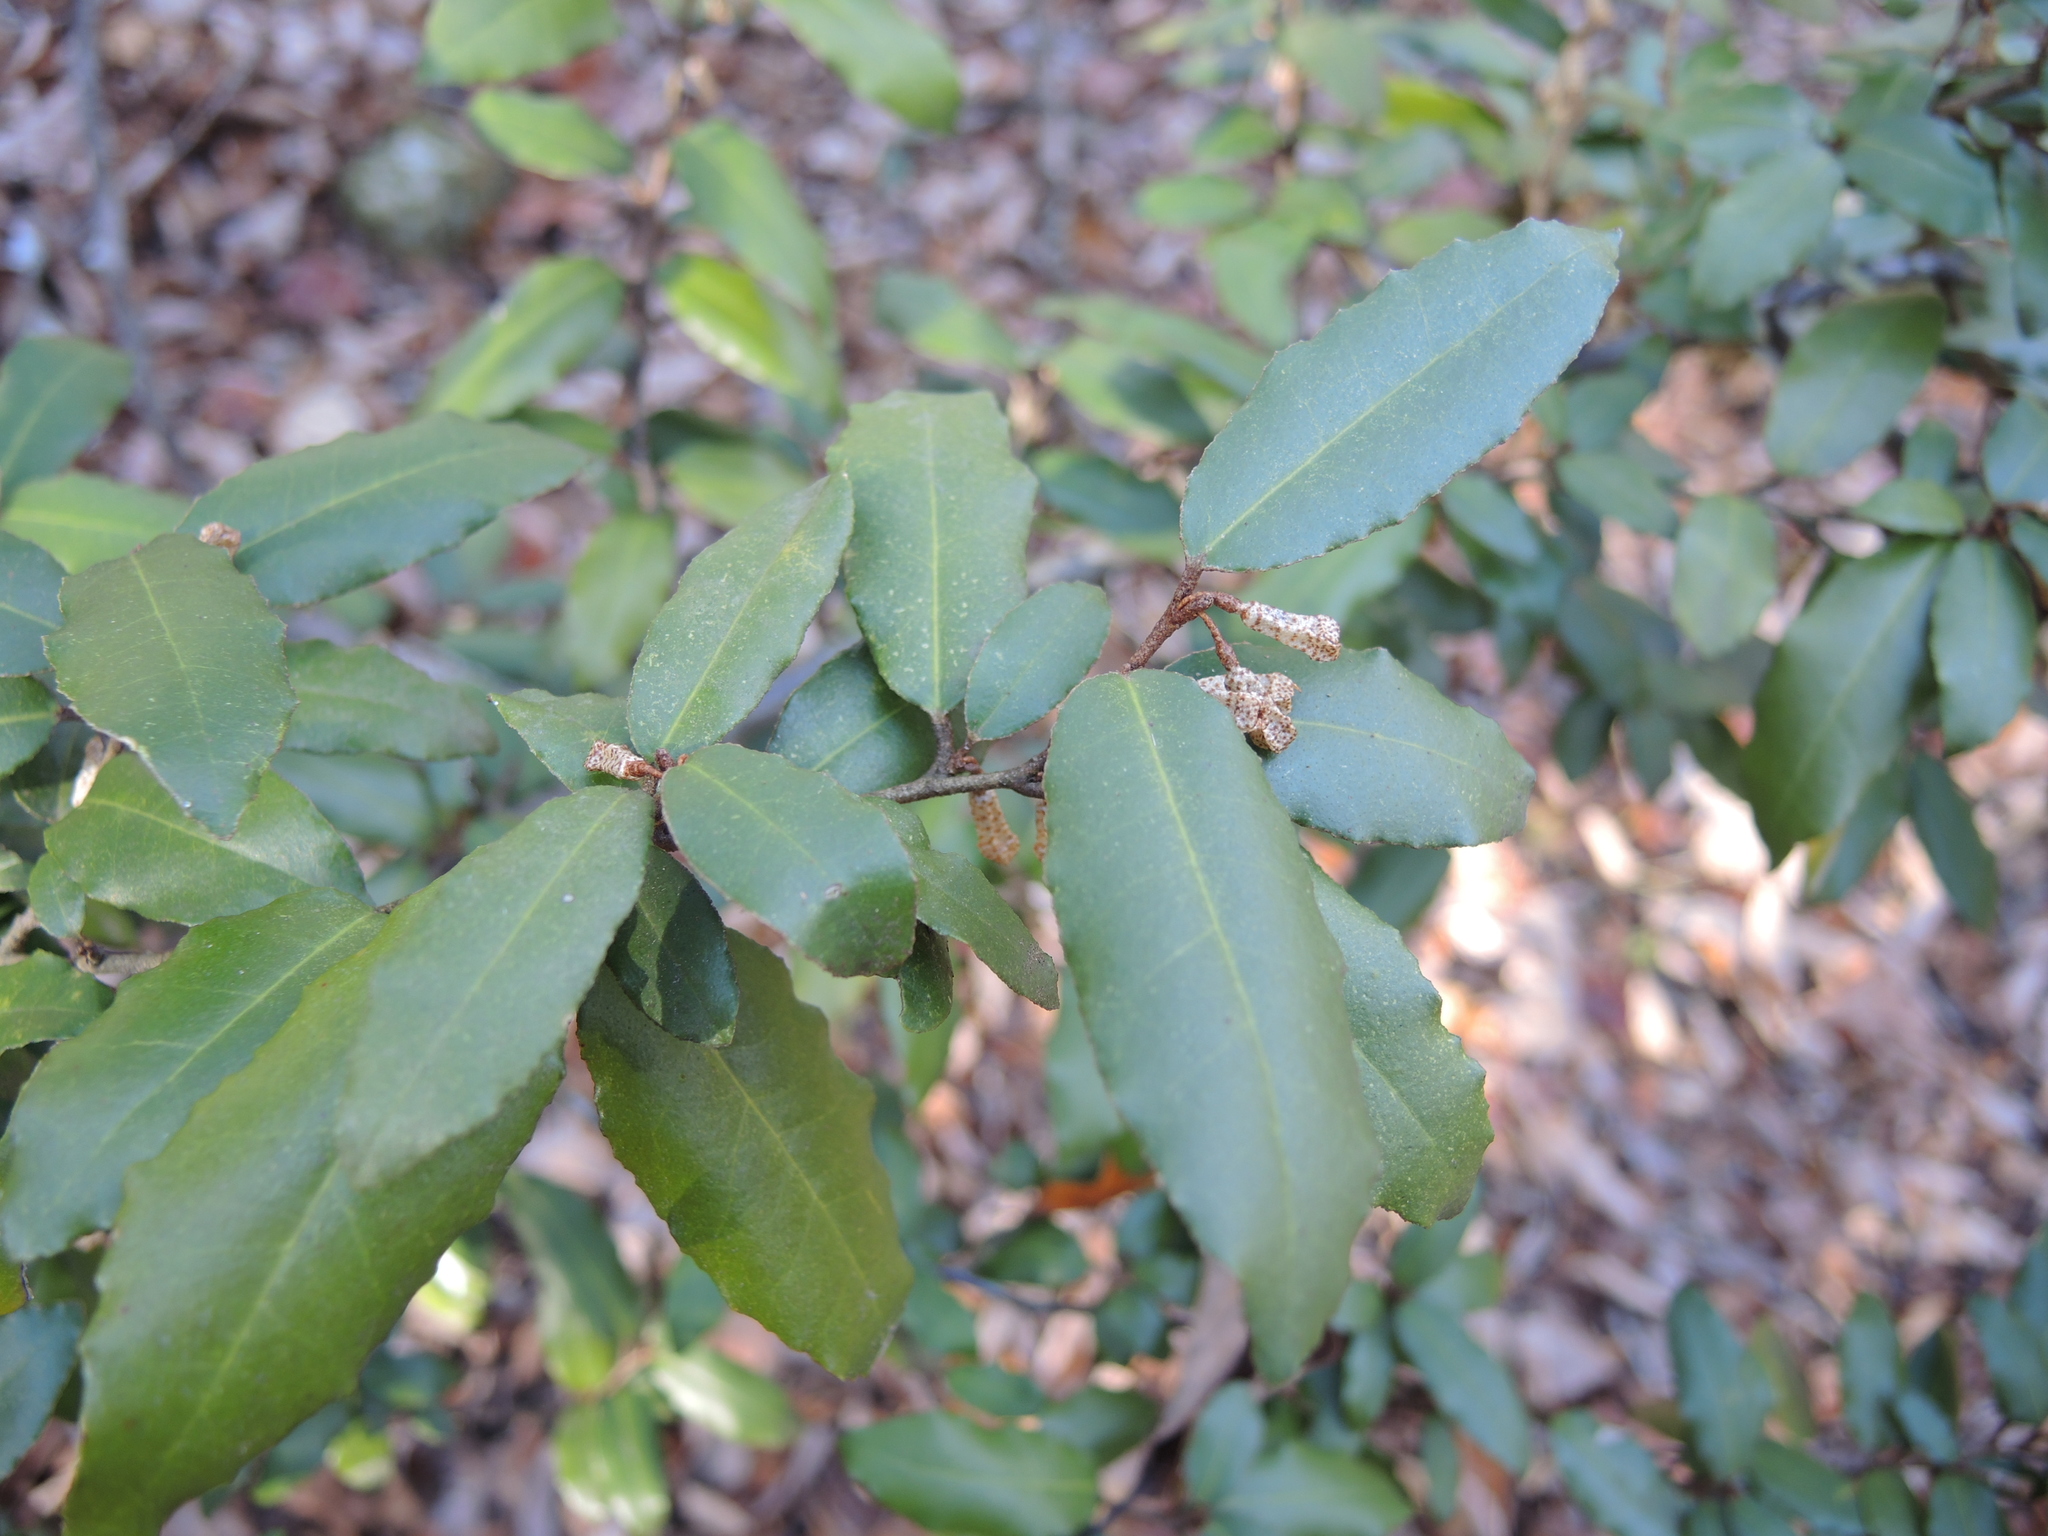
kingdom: Plantae
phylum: Tracheophyta
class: Magnoliopsida
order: Rosales
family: Elaeagnaceae
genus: Elaeagnus
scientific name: Elaeagnus pungens
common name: Spiny oleaster
